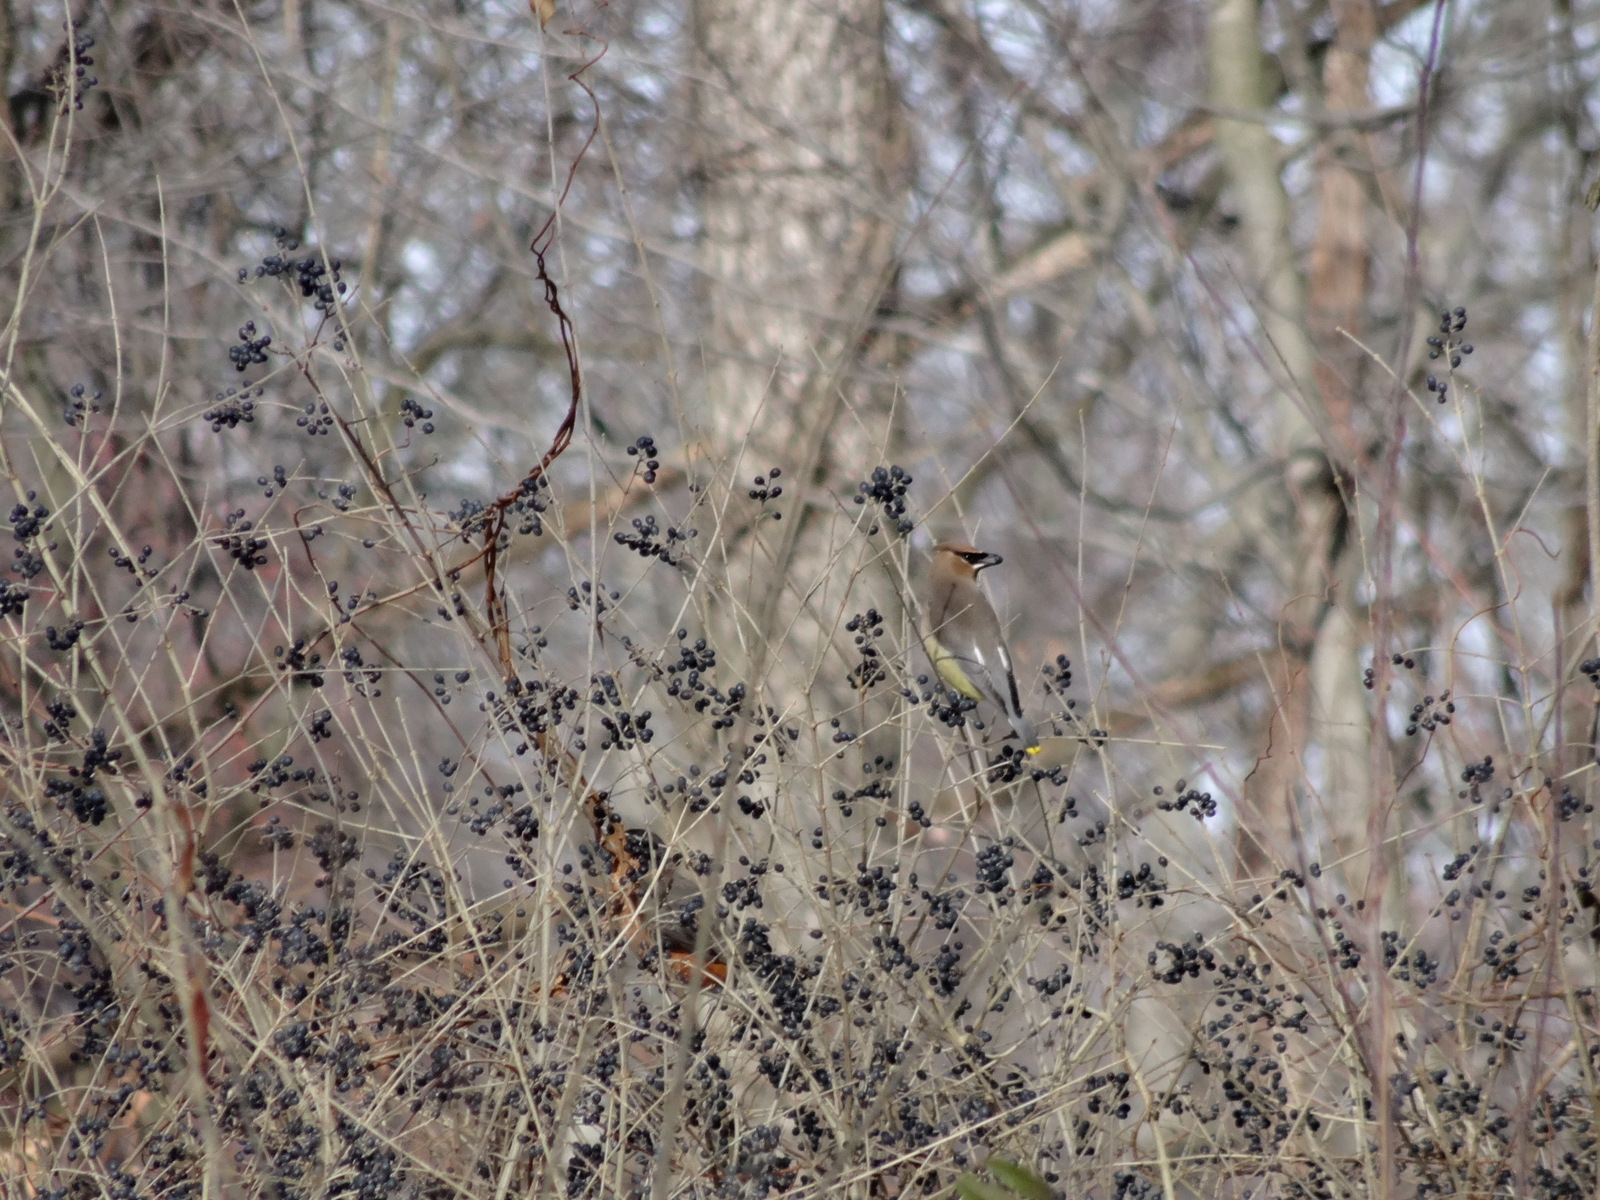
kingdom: Animalia
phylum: Chordata
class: Aves
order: Passeriformes
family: Bombycillidae
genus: Bombycilla
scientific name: Bombycilla cedrorum
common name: Cedar waxwing
